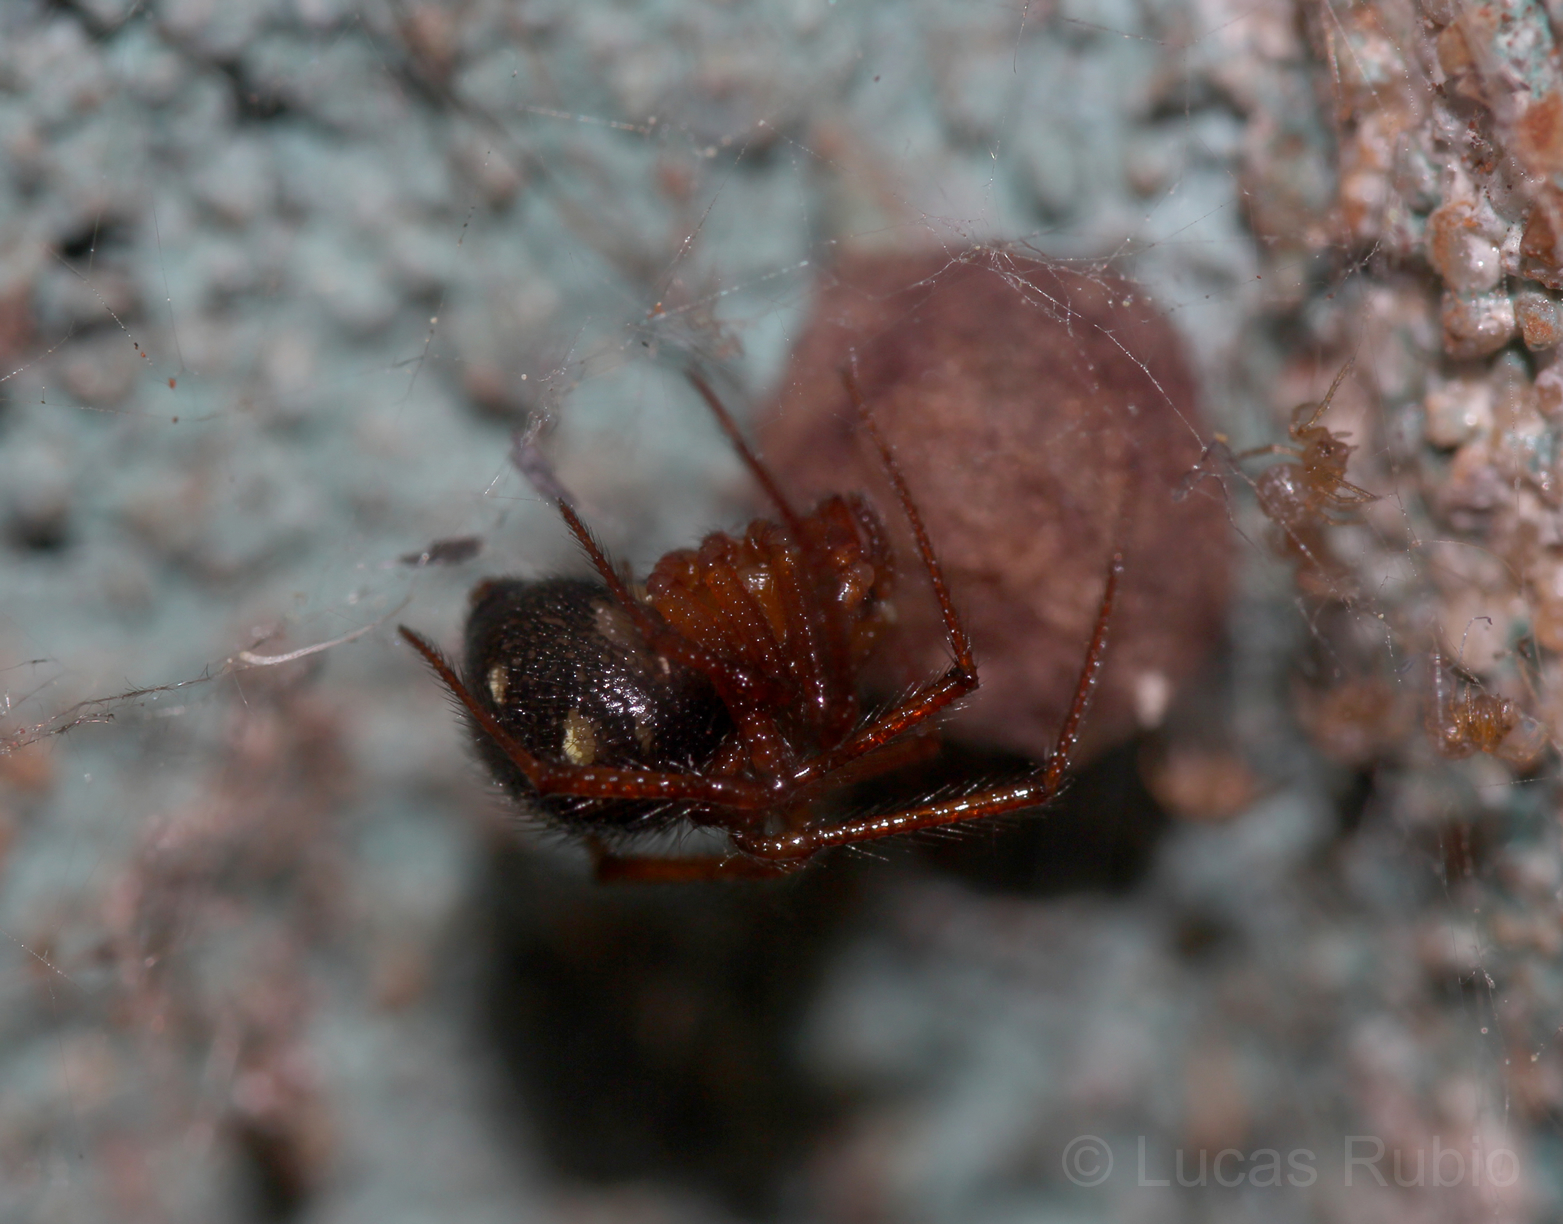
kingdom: Animalia
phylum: Arthropoda
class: Arachnida
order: Araneae
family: Theridiidae
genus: Nesticodes
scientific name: Nesticodes rufipes
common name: Cobweb spiders
